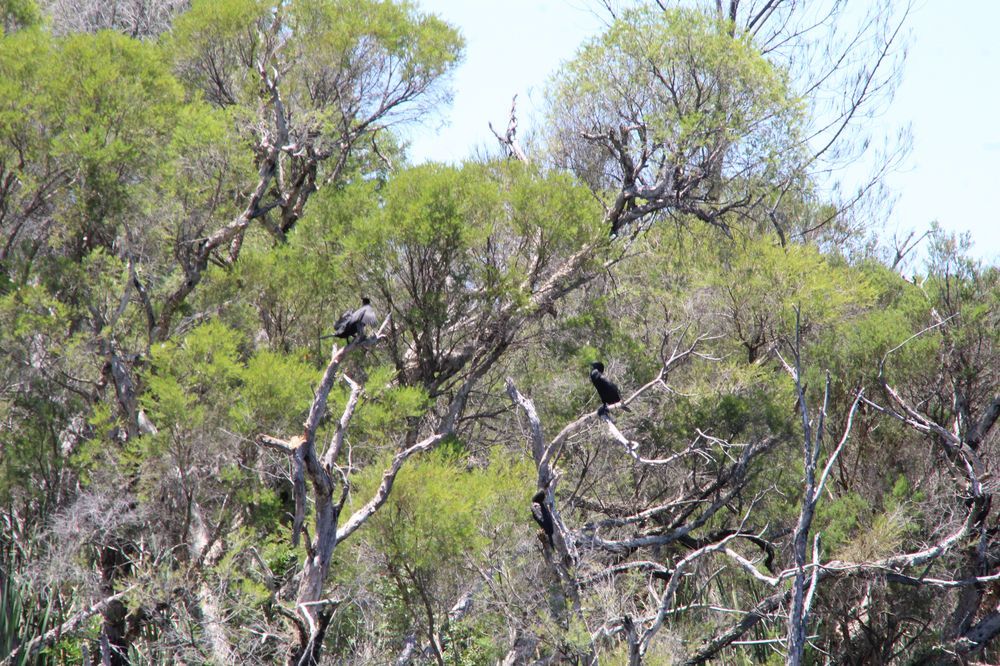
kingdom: Animalia
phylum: Chordata
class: Aves
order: Suliformes
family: Phalacrocoracidae
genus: Phalacrocorax
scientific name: Phalacrocorax sulcirostris
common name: Little black cormorant
